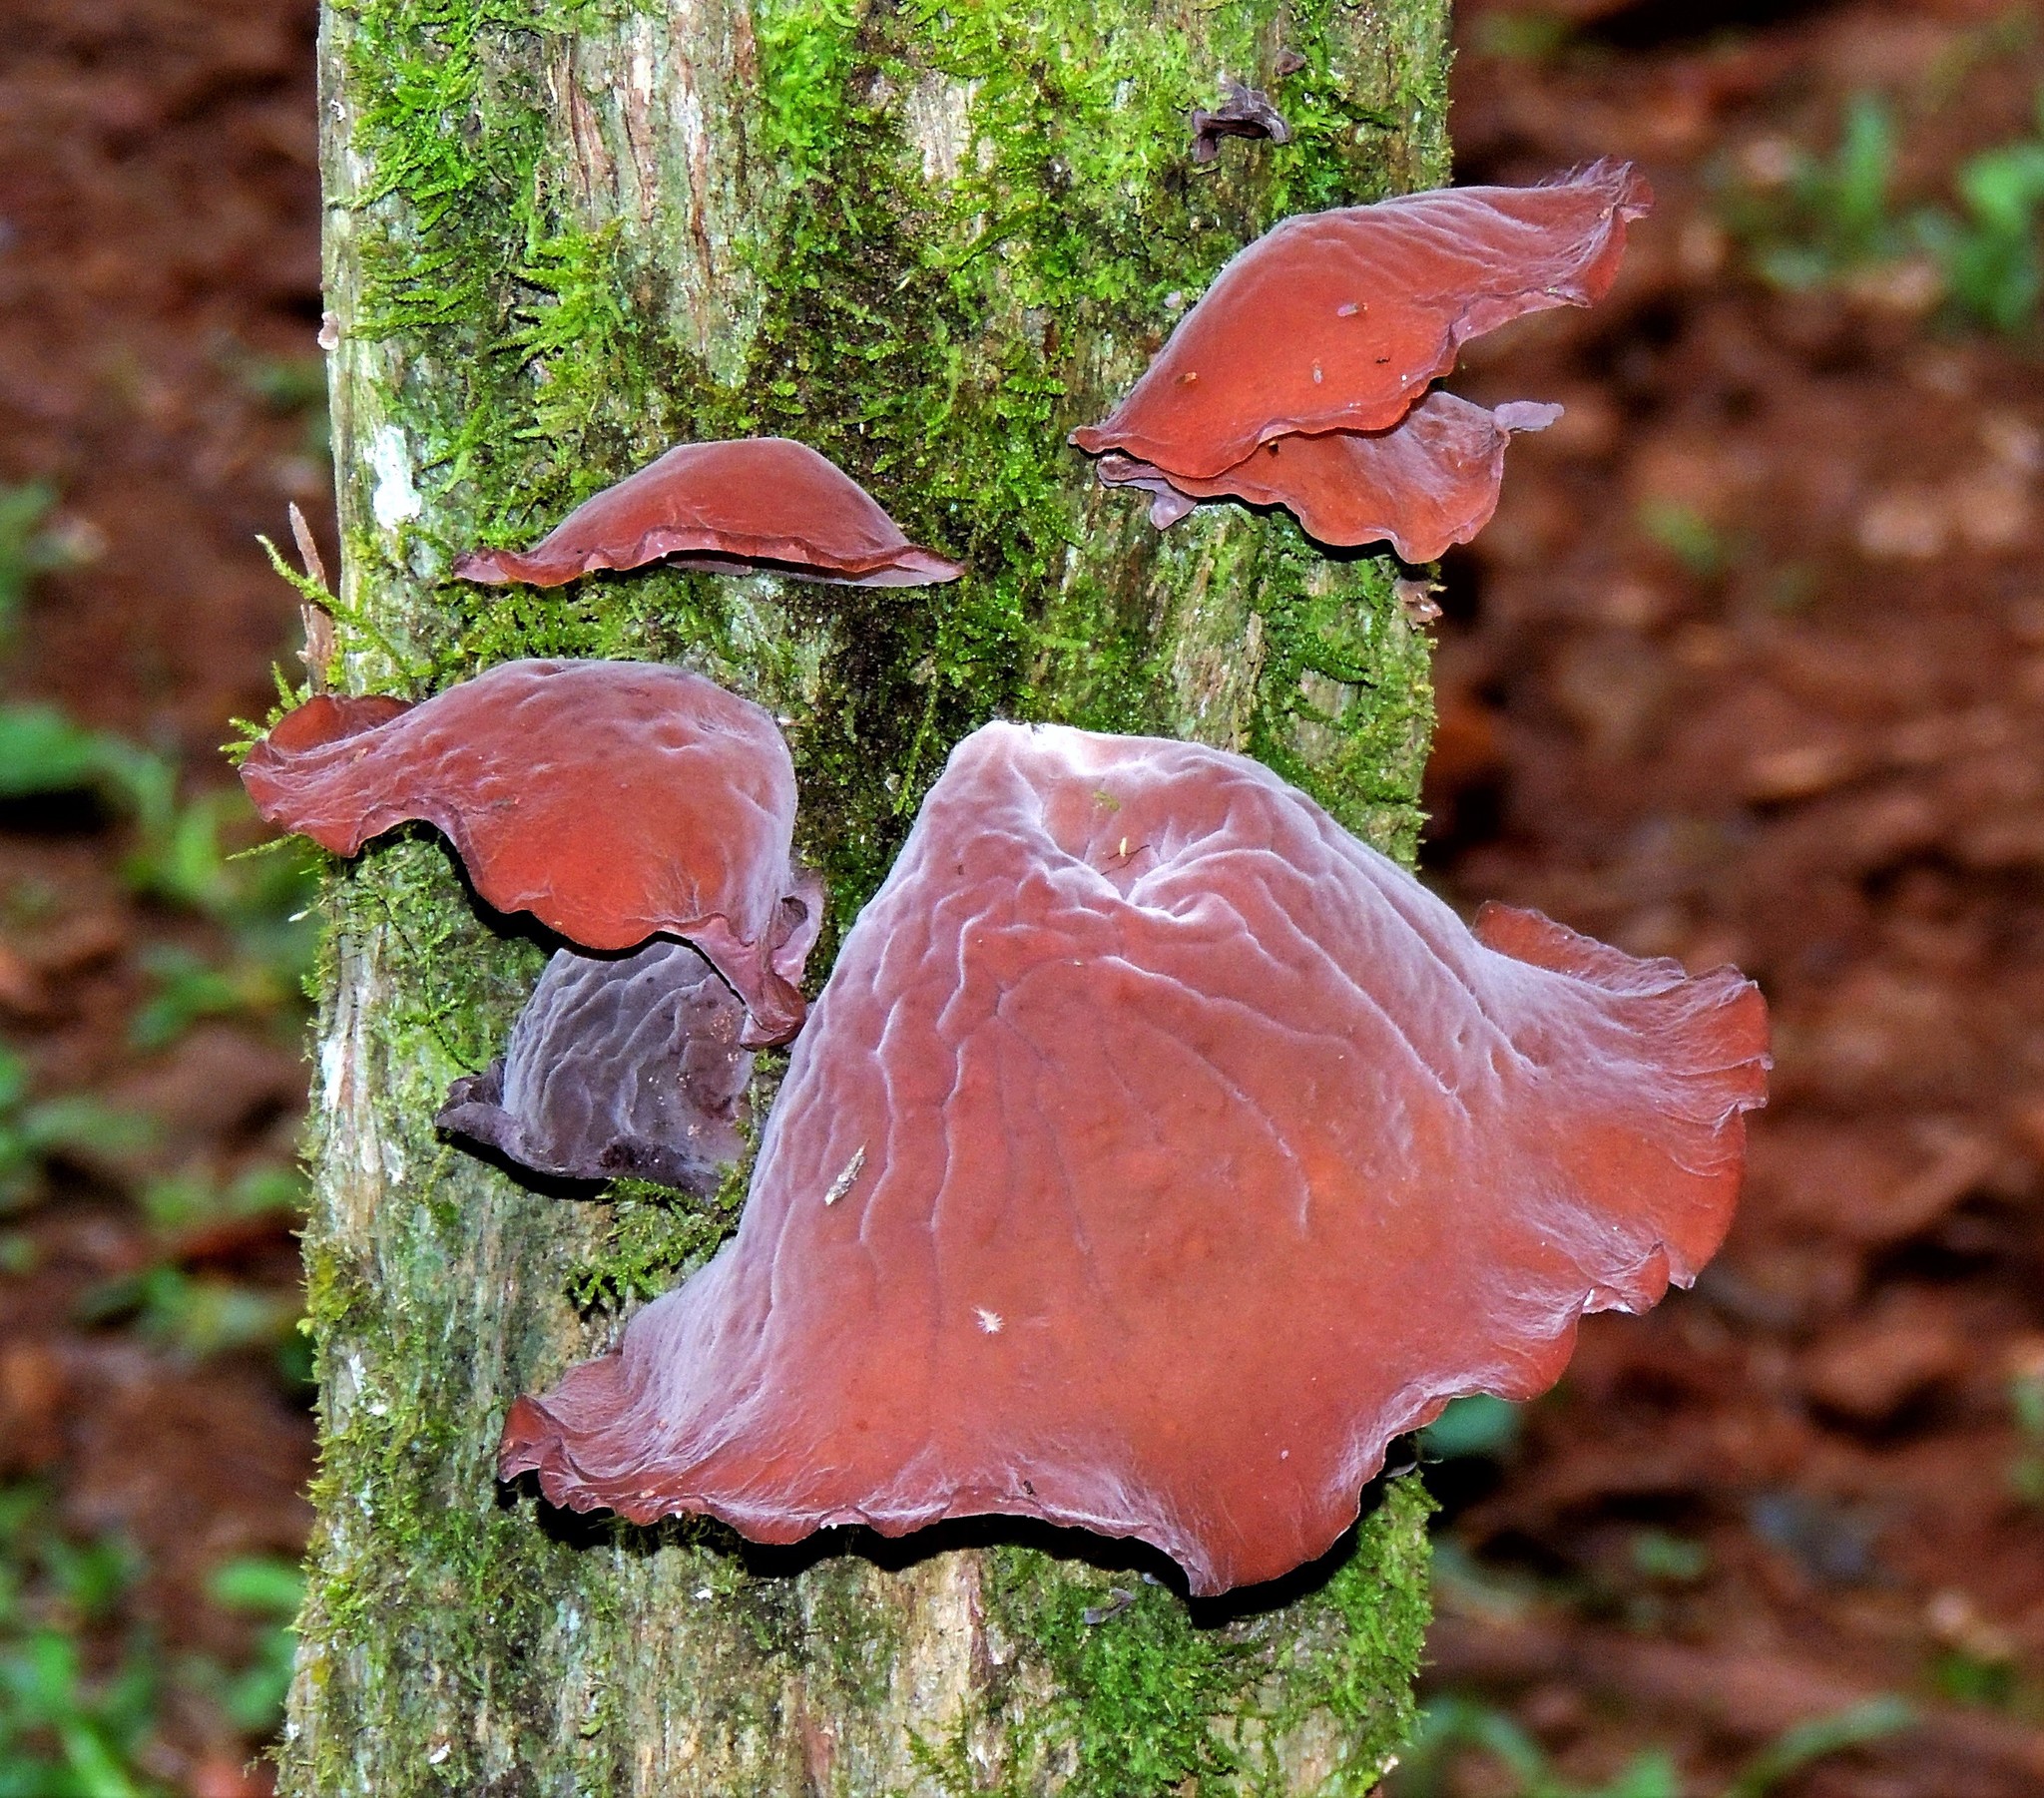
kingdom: Fungi
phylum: Basidiomycota
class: Agaricomycetes
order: Auriculariales
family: Auriculariaceae
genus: Auricularia
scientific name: Auricularia fuscosuccinea
